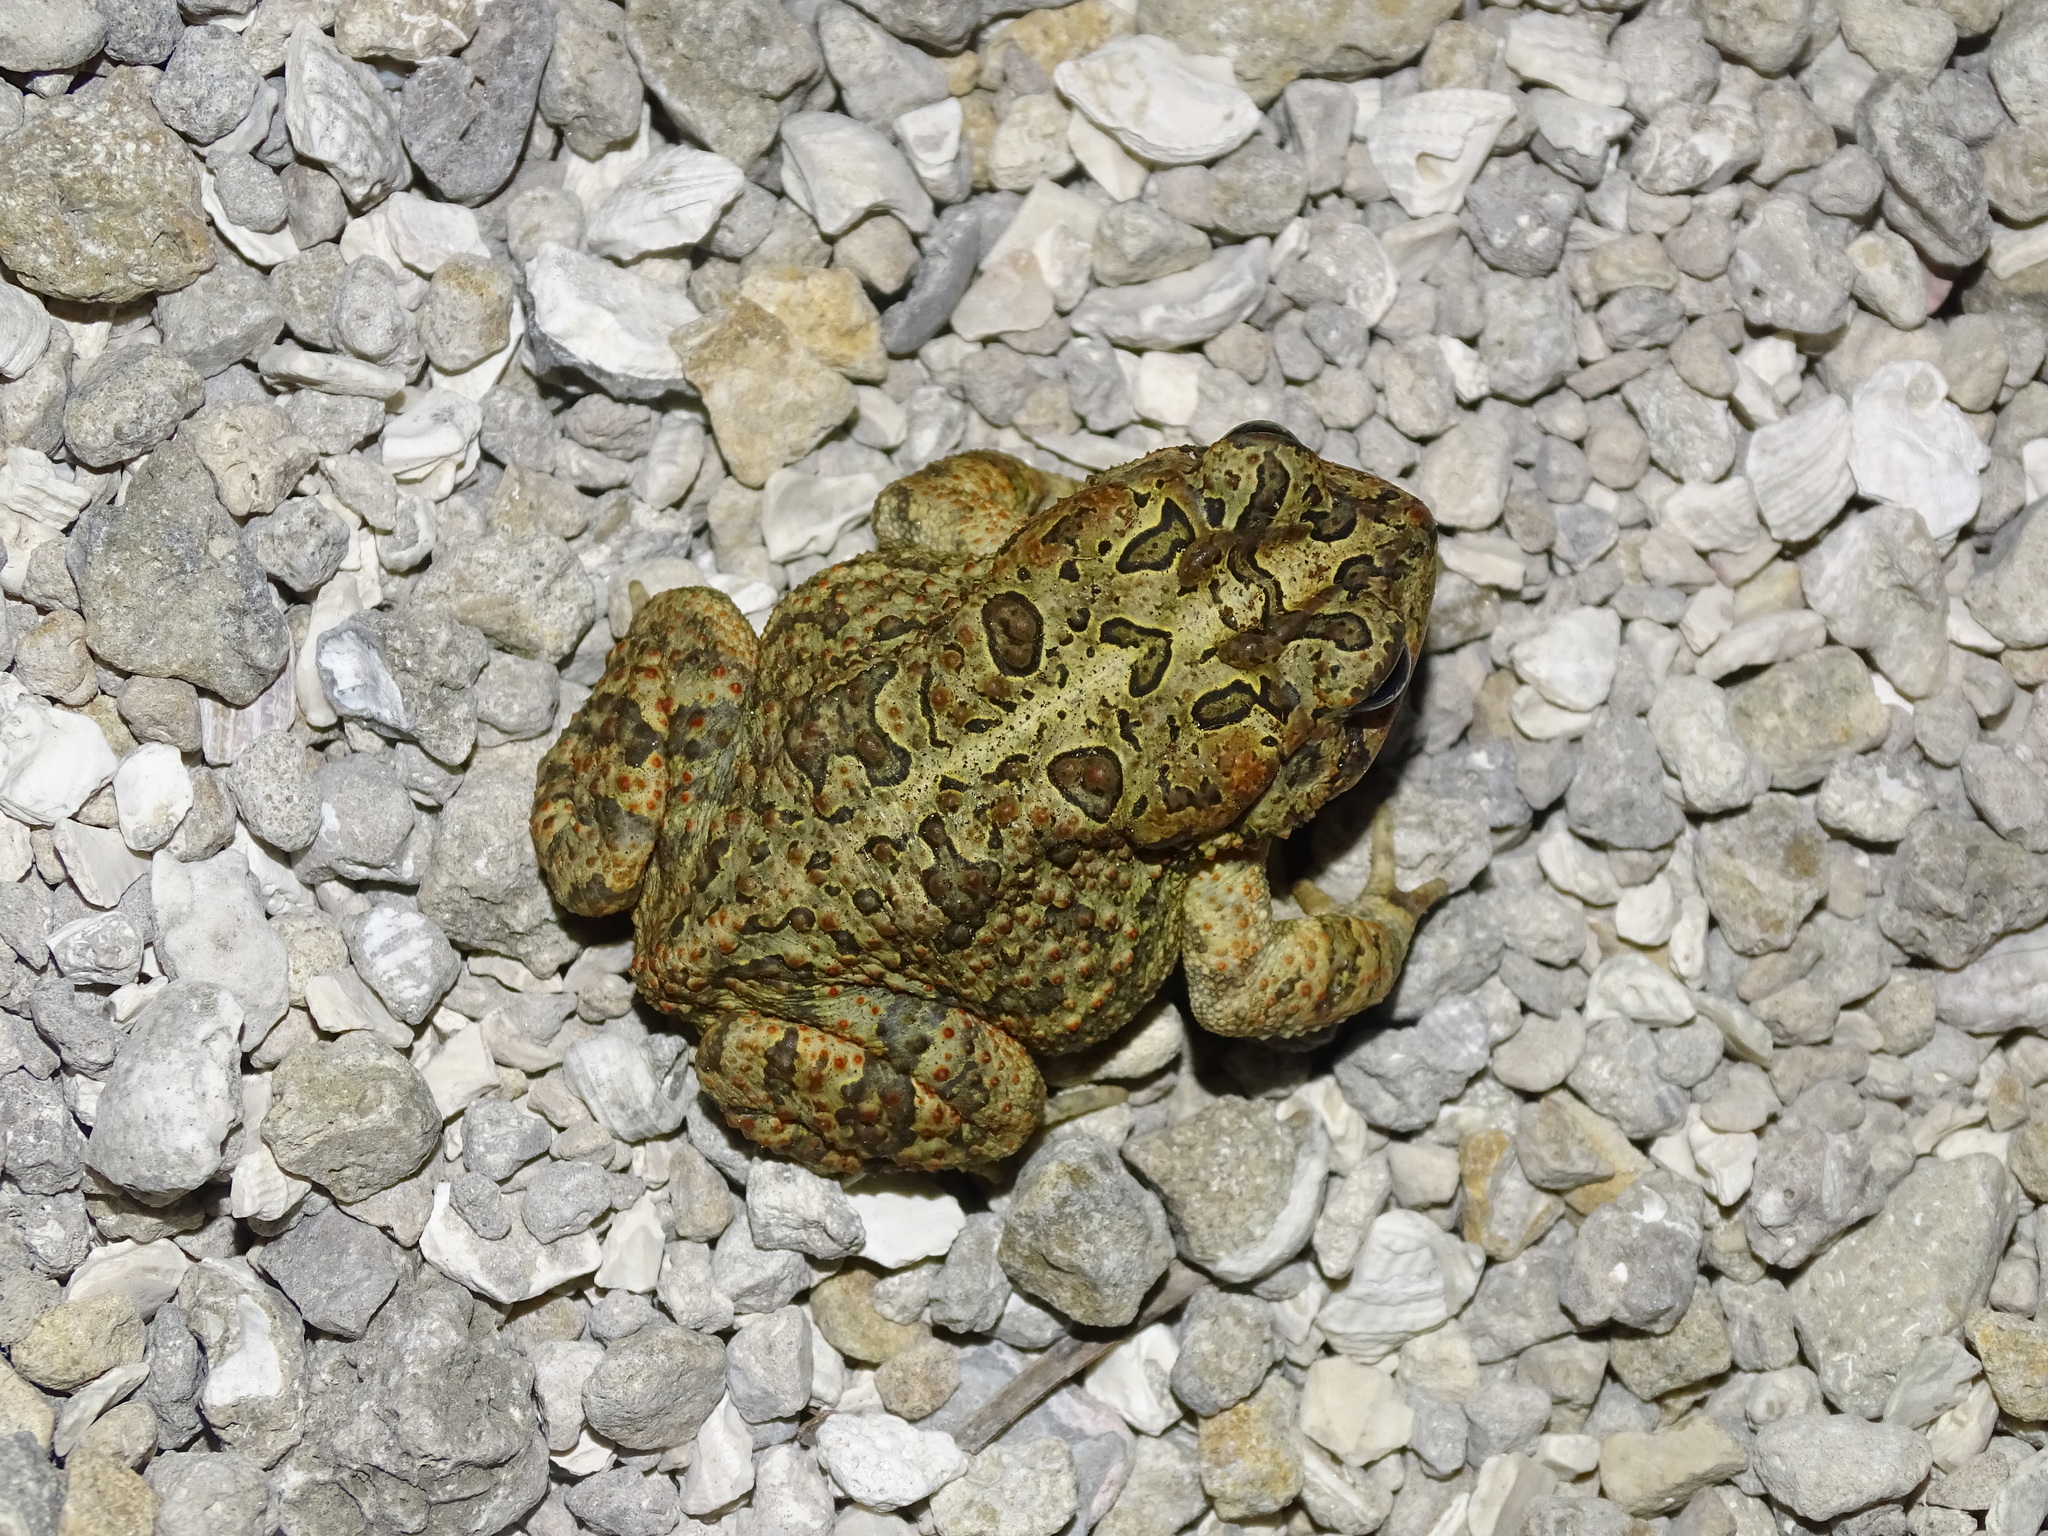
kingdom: Animalia
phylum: Chordata
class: Amphibia
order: Anura
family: Bufonidae
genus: Anaxyrus
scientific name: Anaxyrus terrestris
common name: Southern toad
